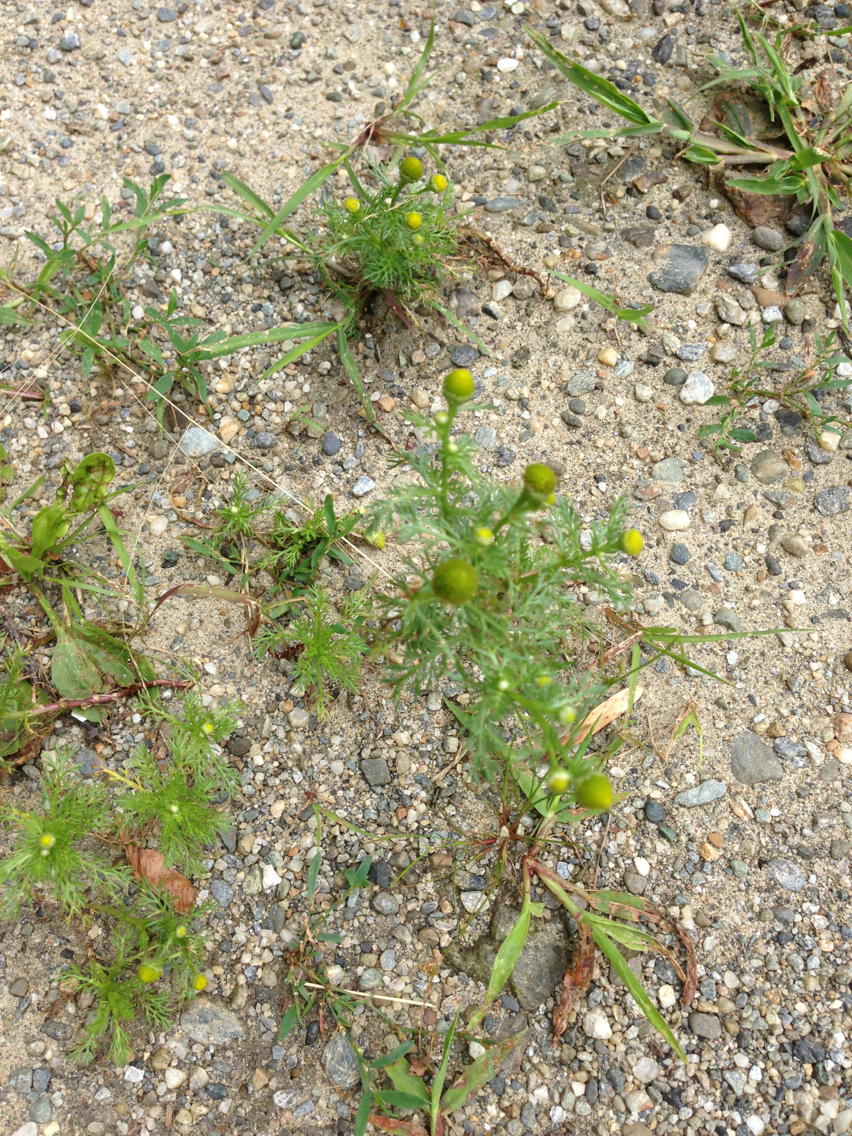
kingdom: Plantae
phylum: Tracheophyta
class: Magnoliopsida
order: Asterales
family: Asteraceae
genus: Matricaria
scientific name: Matricaria discoidea
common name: Disc mayweed
